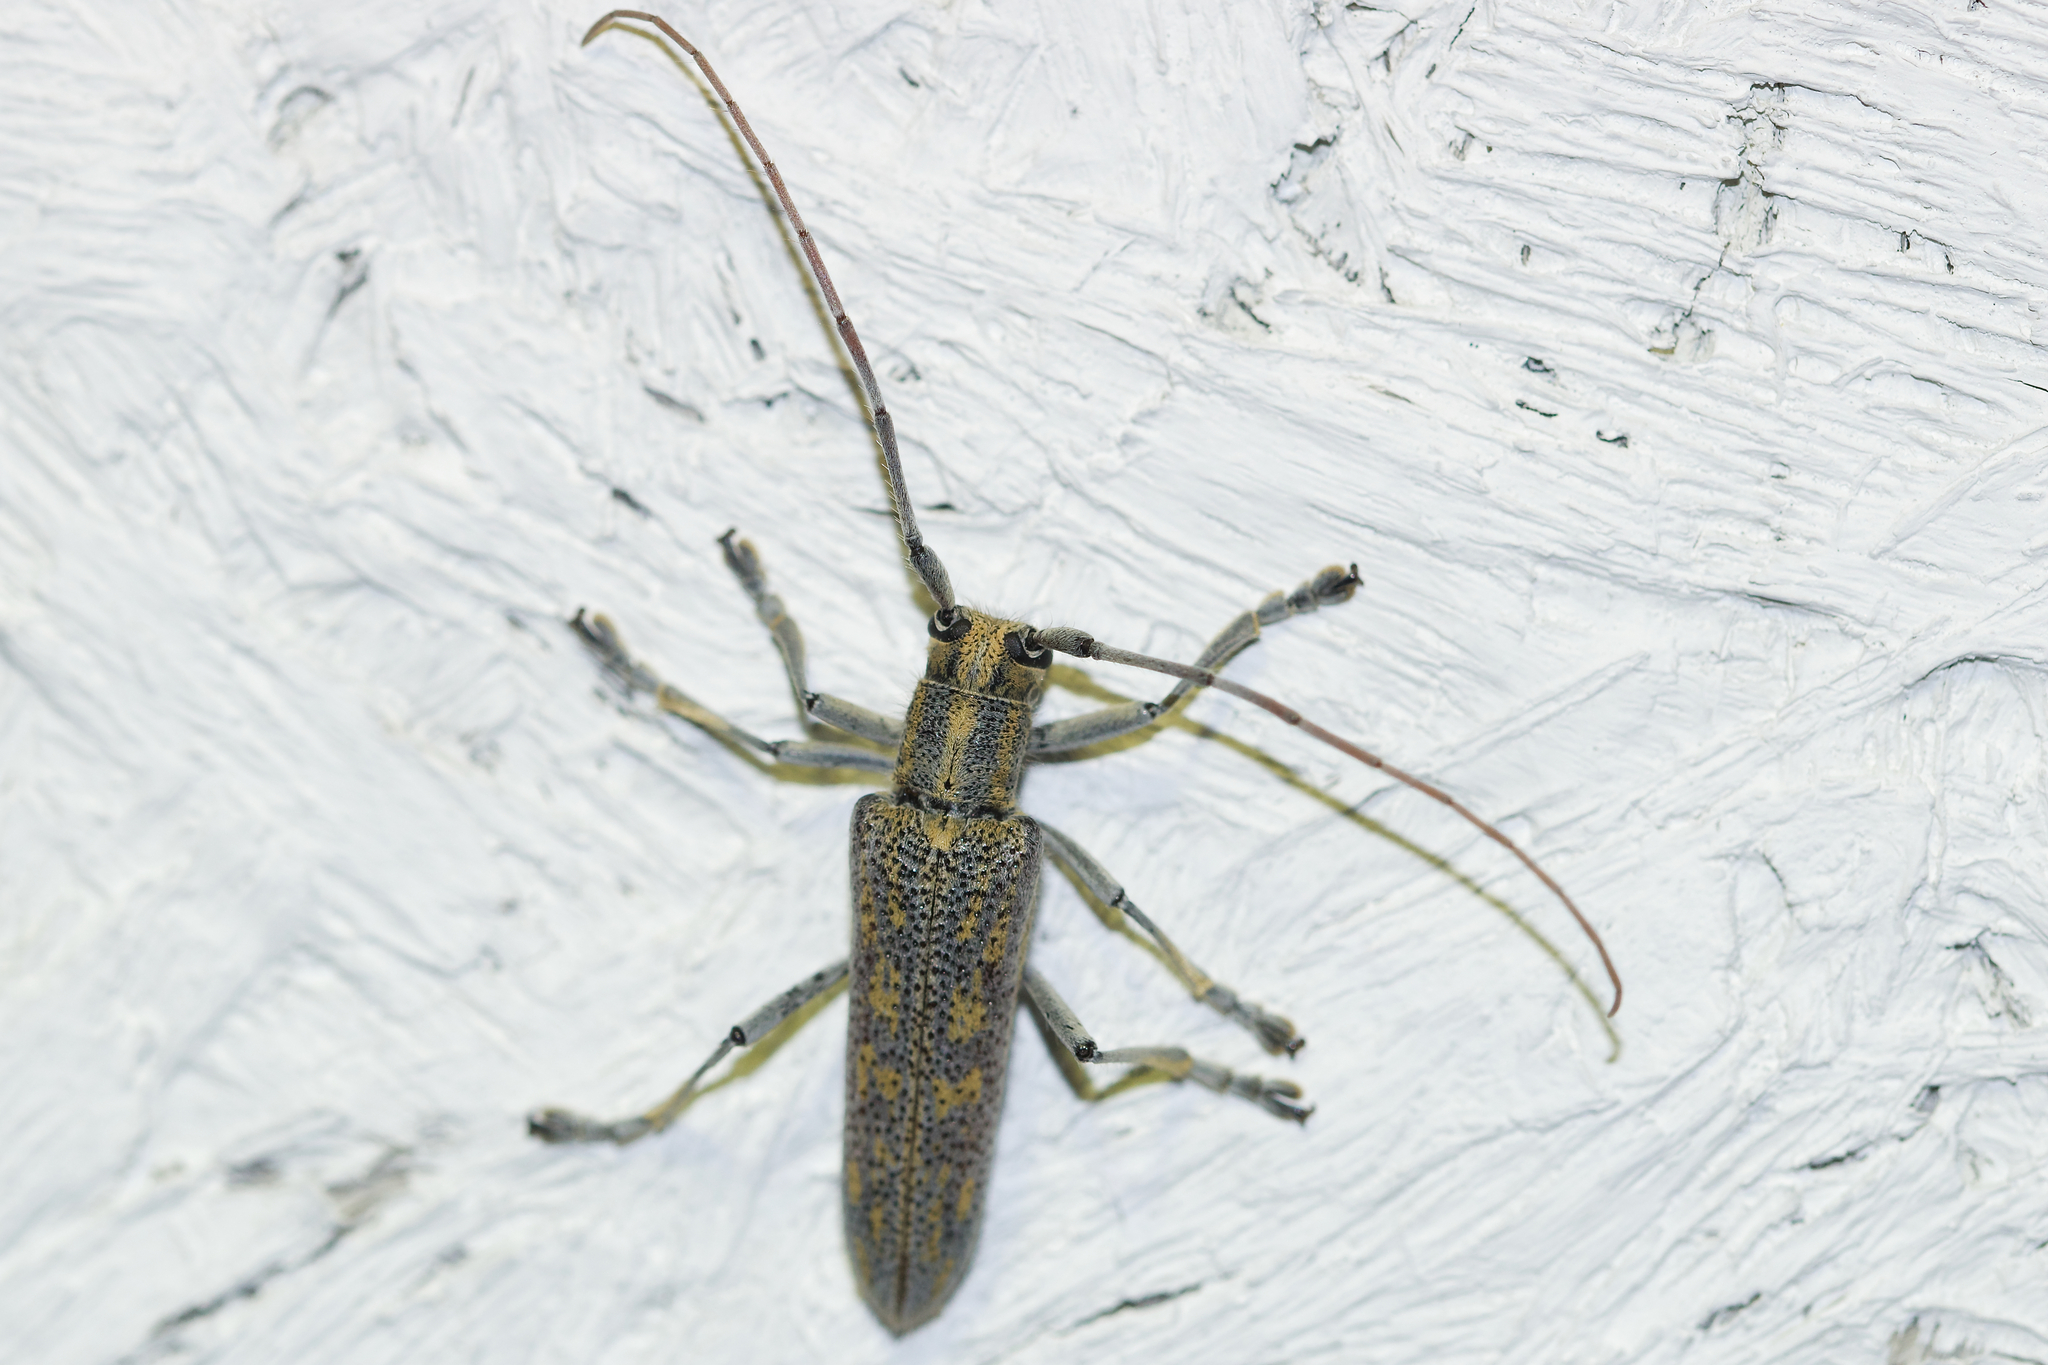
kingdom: Animalia
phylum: Arthropoda
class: Insecta
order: Coleoptera
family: Cerambycidae
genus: Saperda
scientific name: Saperda calcarata
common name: Poplar borer
